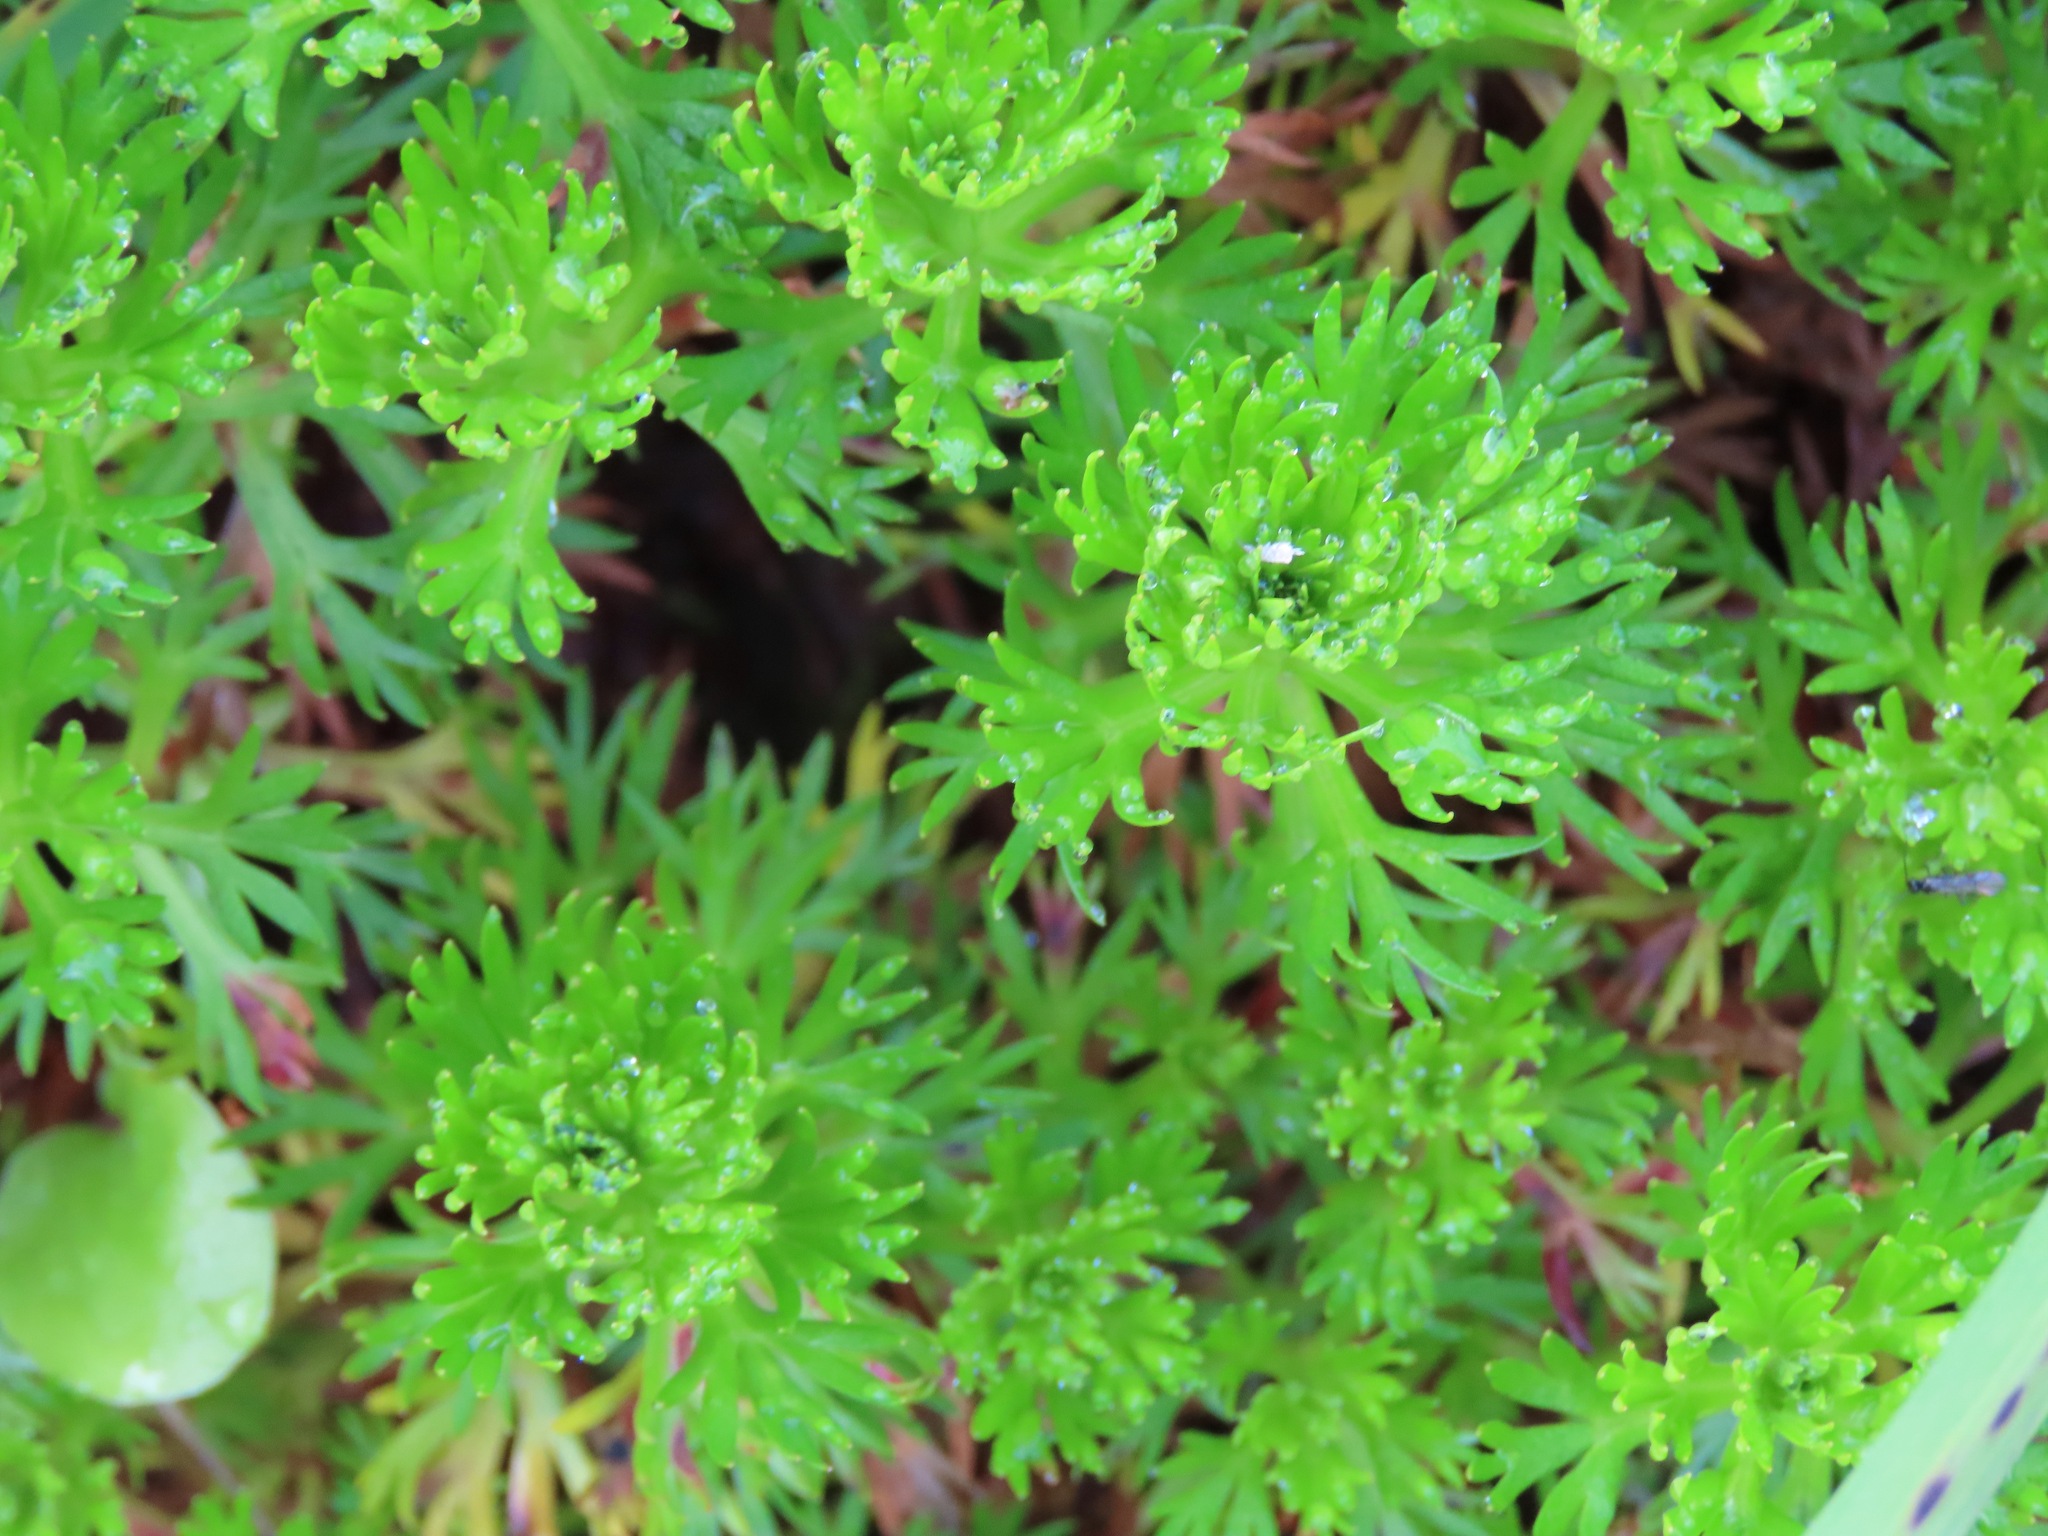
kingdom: Plantae
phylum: Tracheophyta
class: Magnoliopsida
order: Rosales
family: Rosaceae
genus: Luetkea
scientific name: Luetkea pectinata
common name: Partridgefoot
